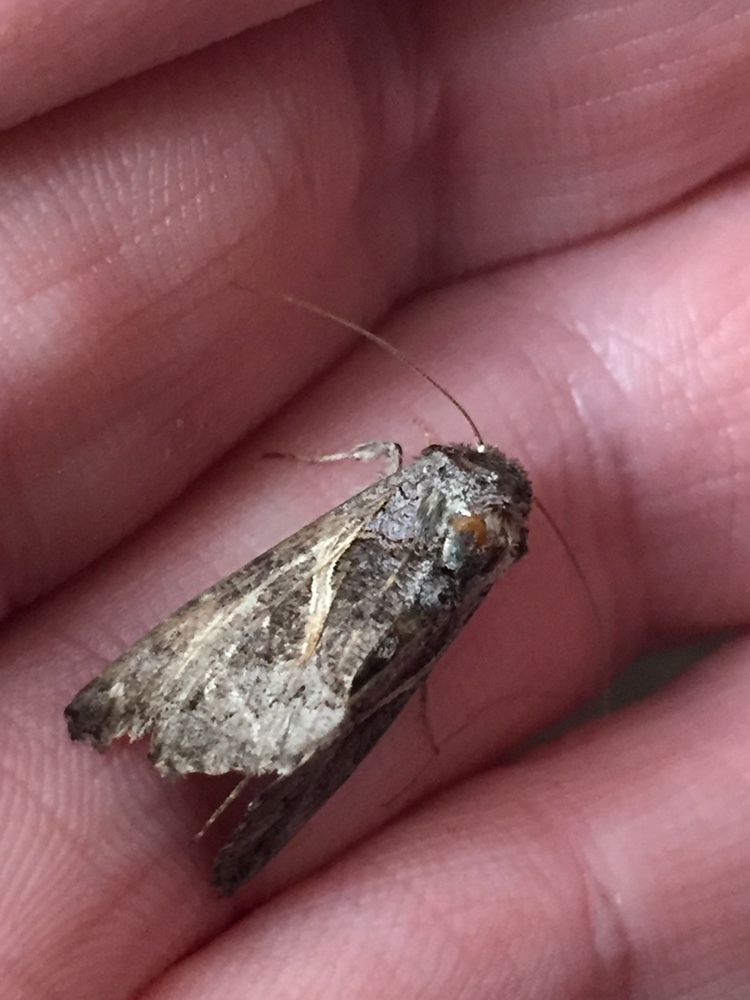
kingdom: Animalia
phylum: Arthropoda
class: Insecta
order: Lepidoptera
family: Noctuidae
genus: Ctenoplusia
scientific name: Ctenoplusia albostriata
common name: Moth
